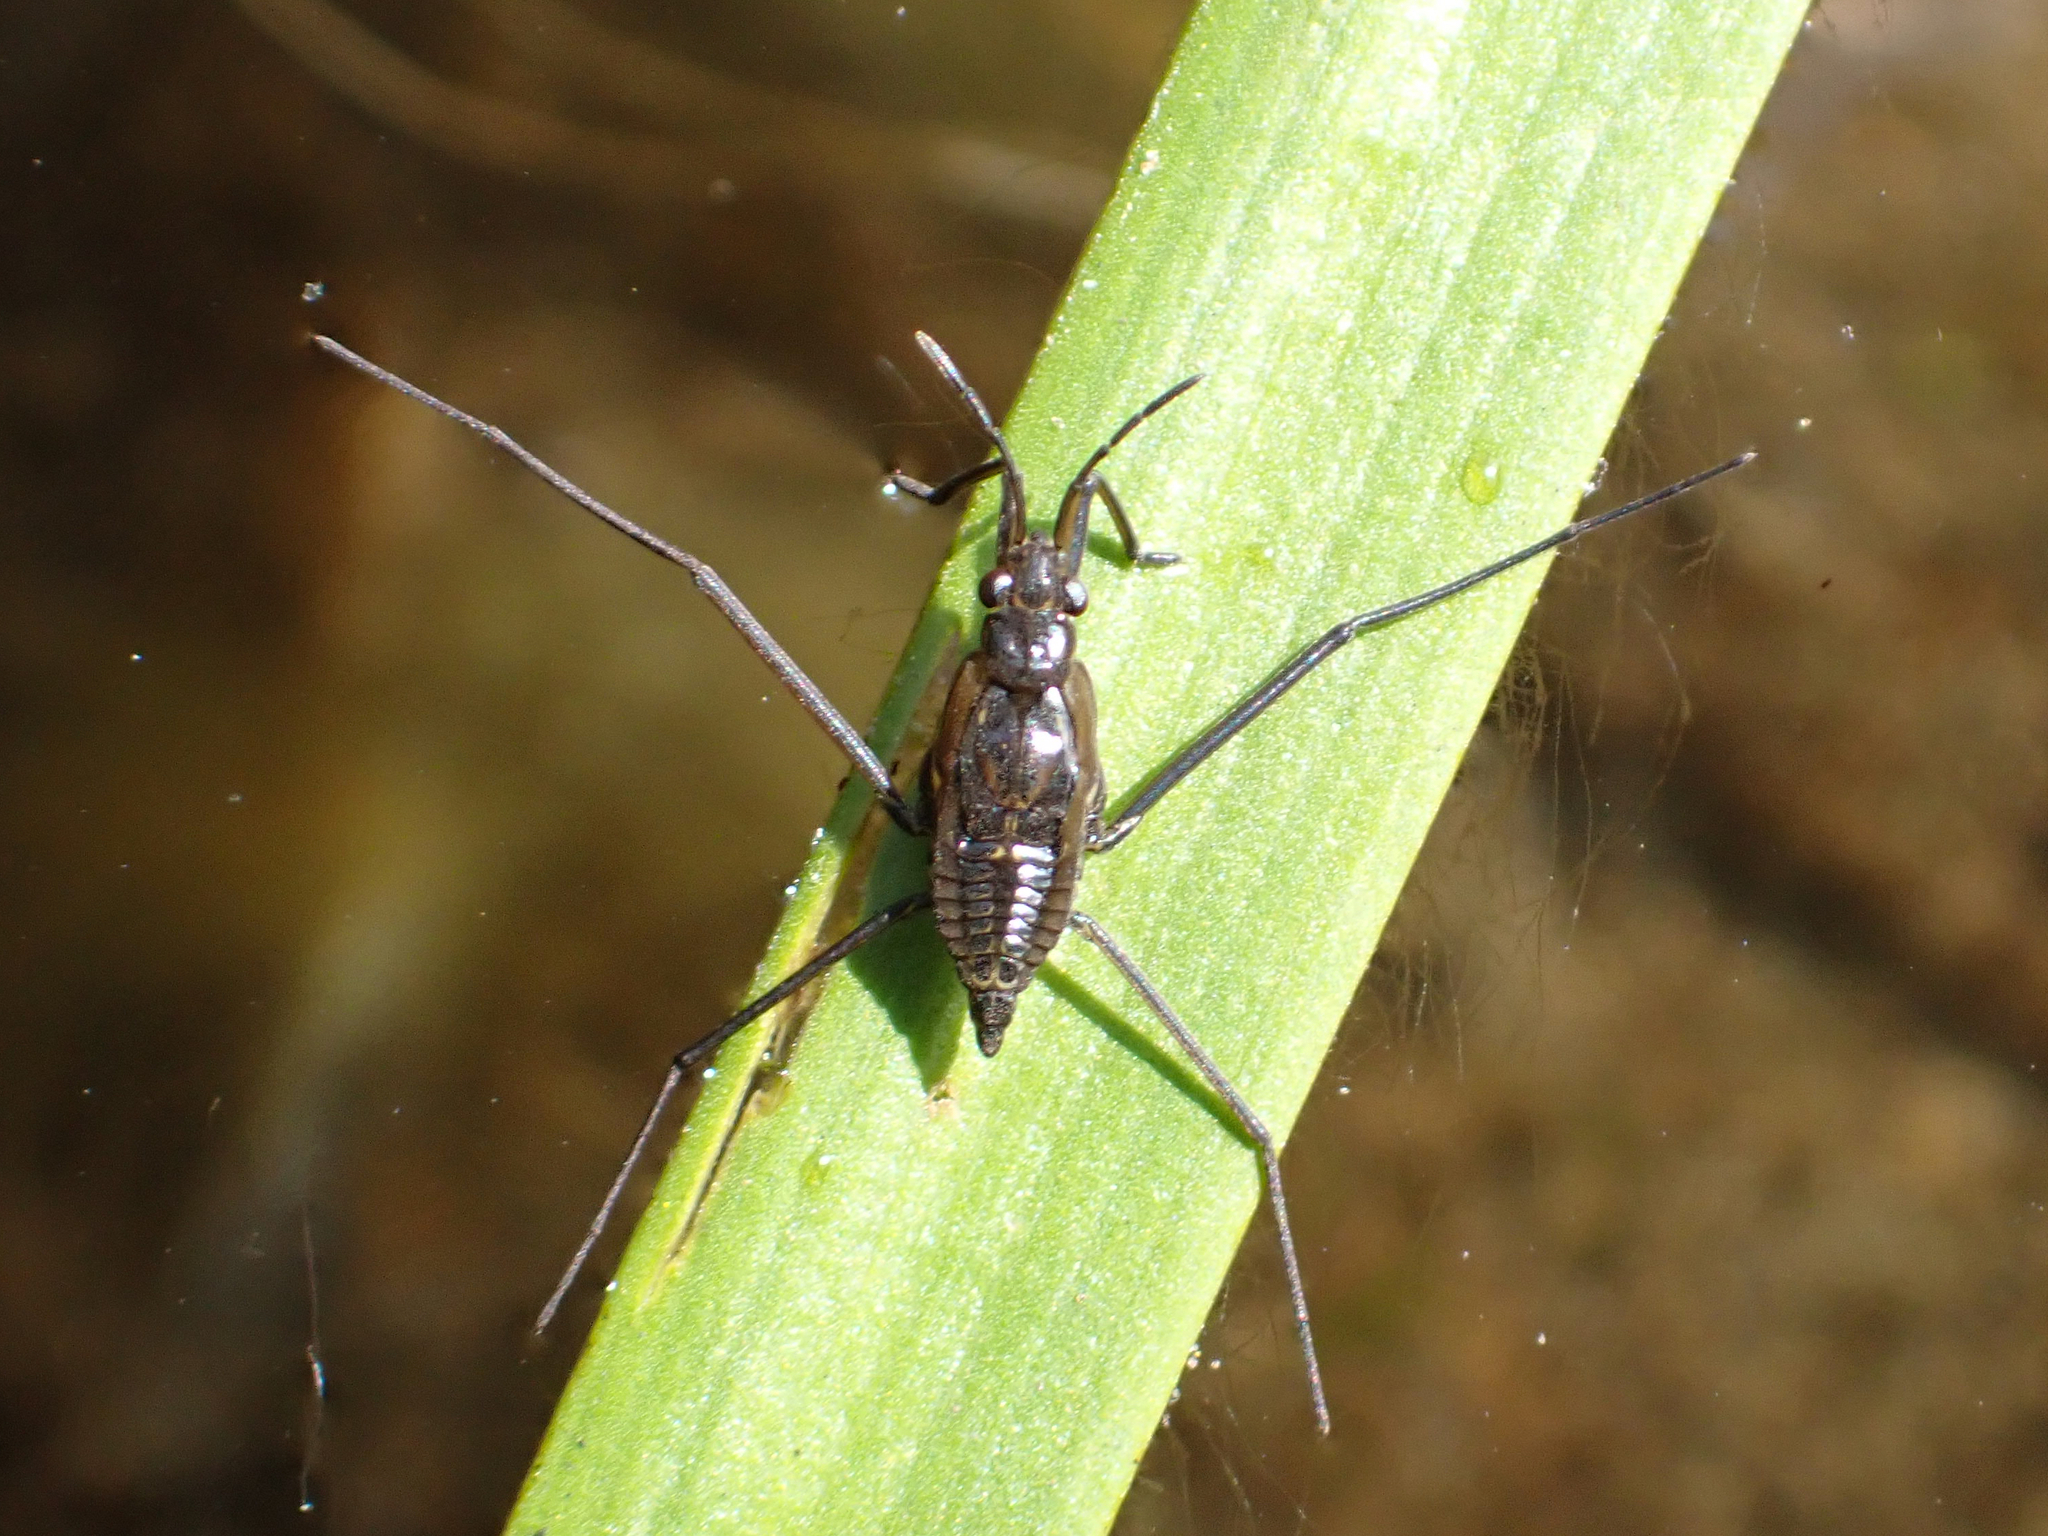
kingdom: Animalia
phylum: Arthropoda
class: Insecta
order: Hemiptera
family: Gerridae
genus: Gerris
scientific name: Gerris
